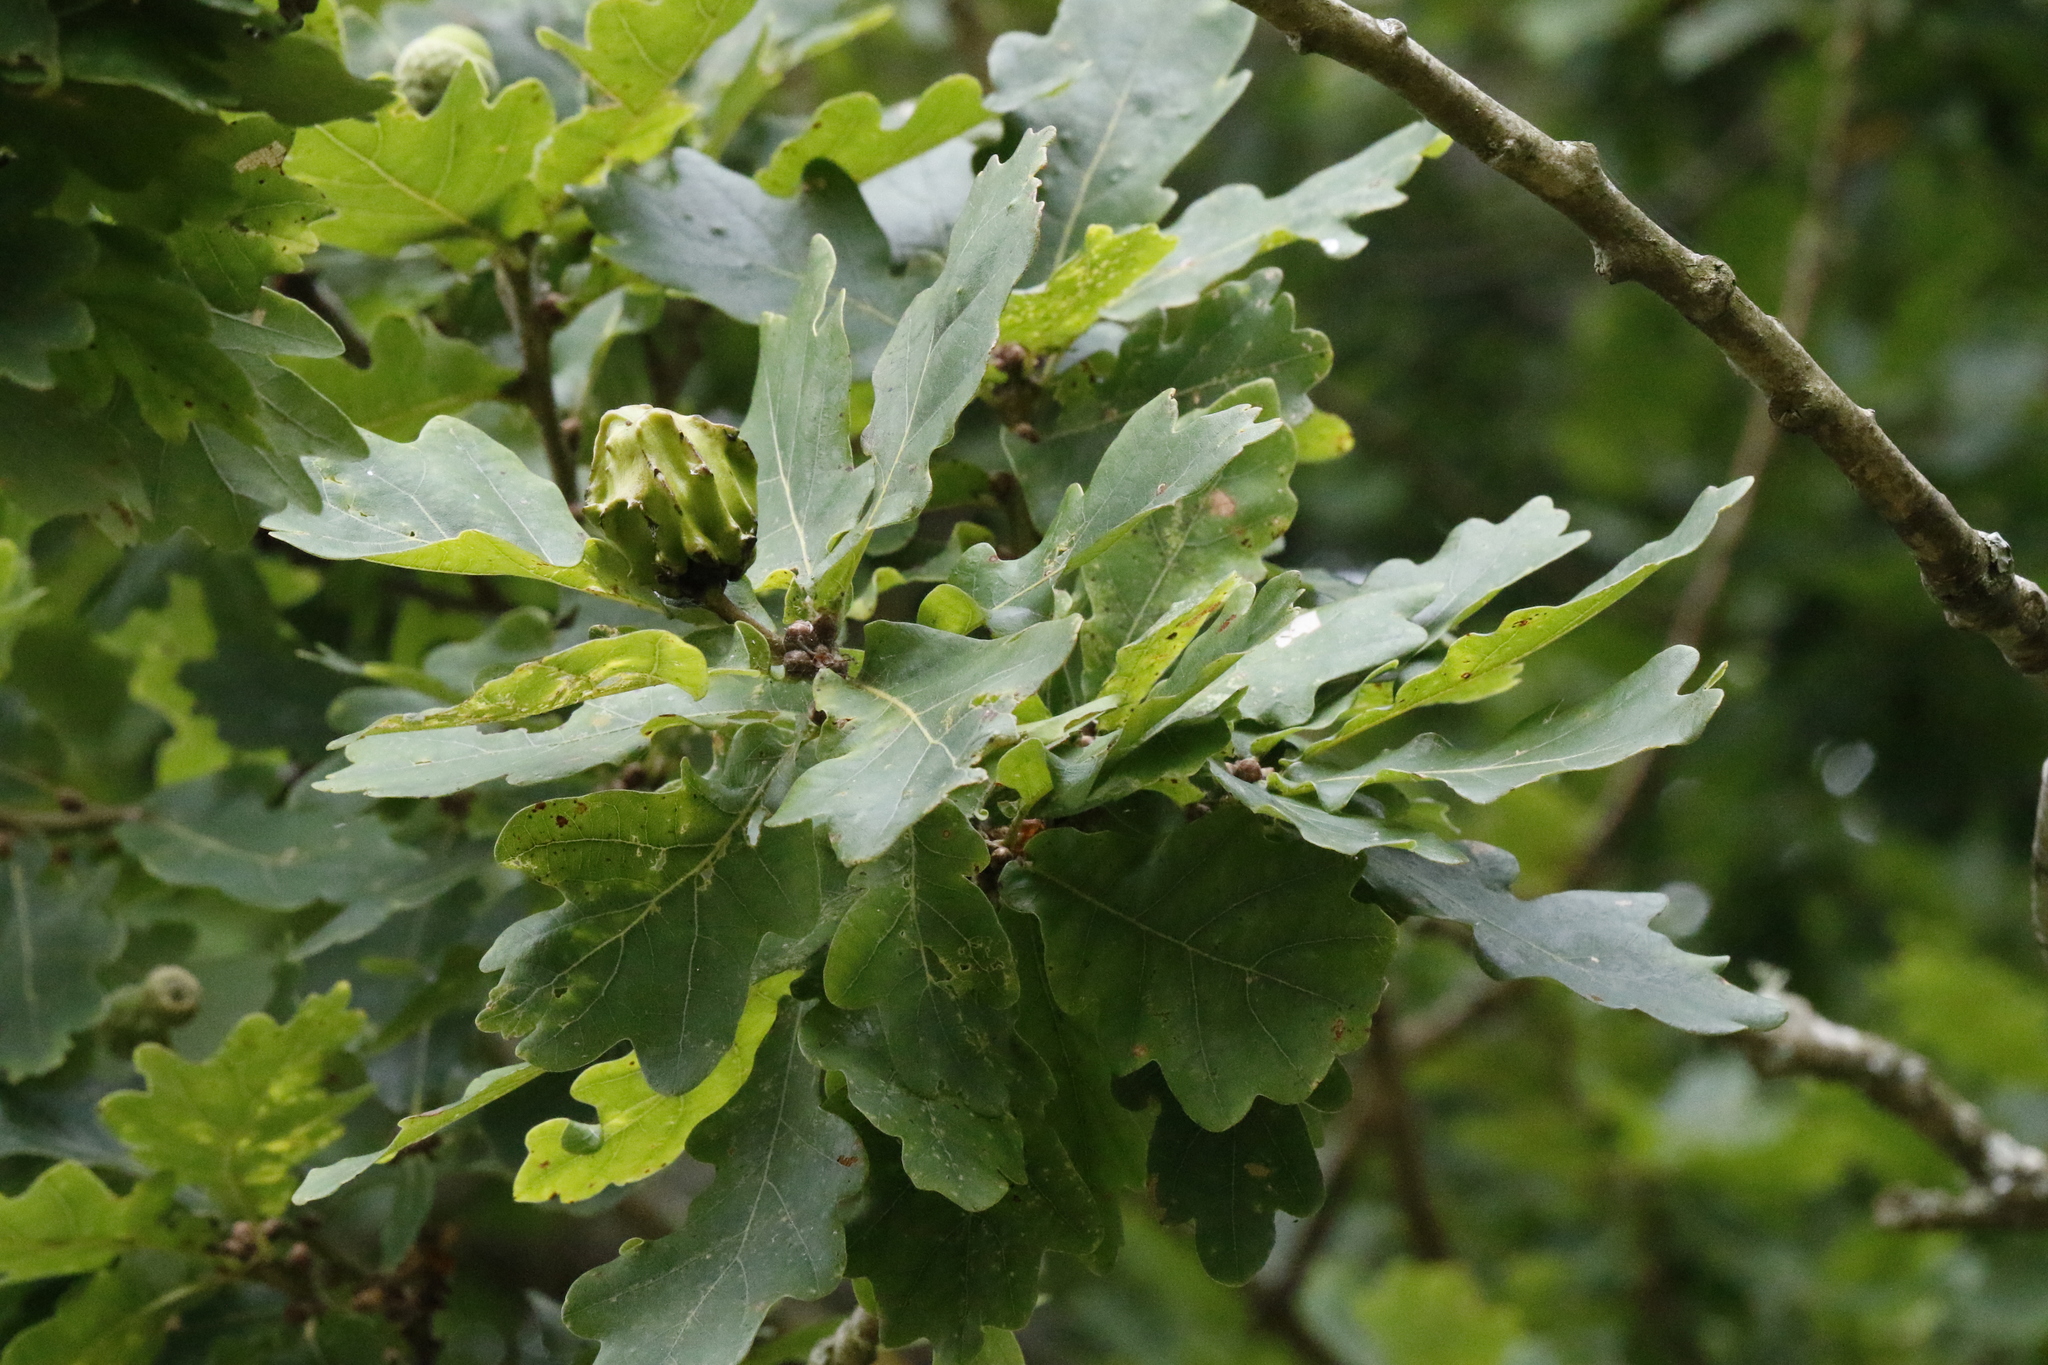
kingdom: Animalia
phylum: Arthropoda
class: Insecta
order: Hymenoptera
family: Cynipidae
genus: Andricus
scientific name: Andricus quercuscalicis
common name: Knopper gall
